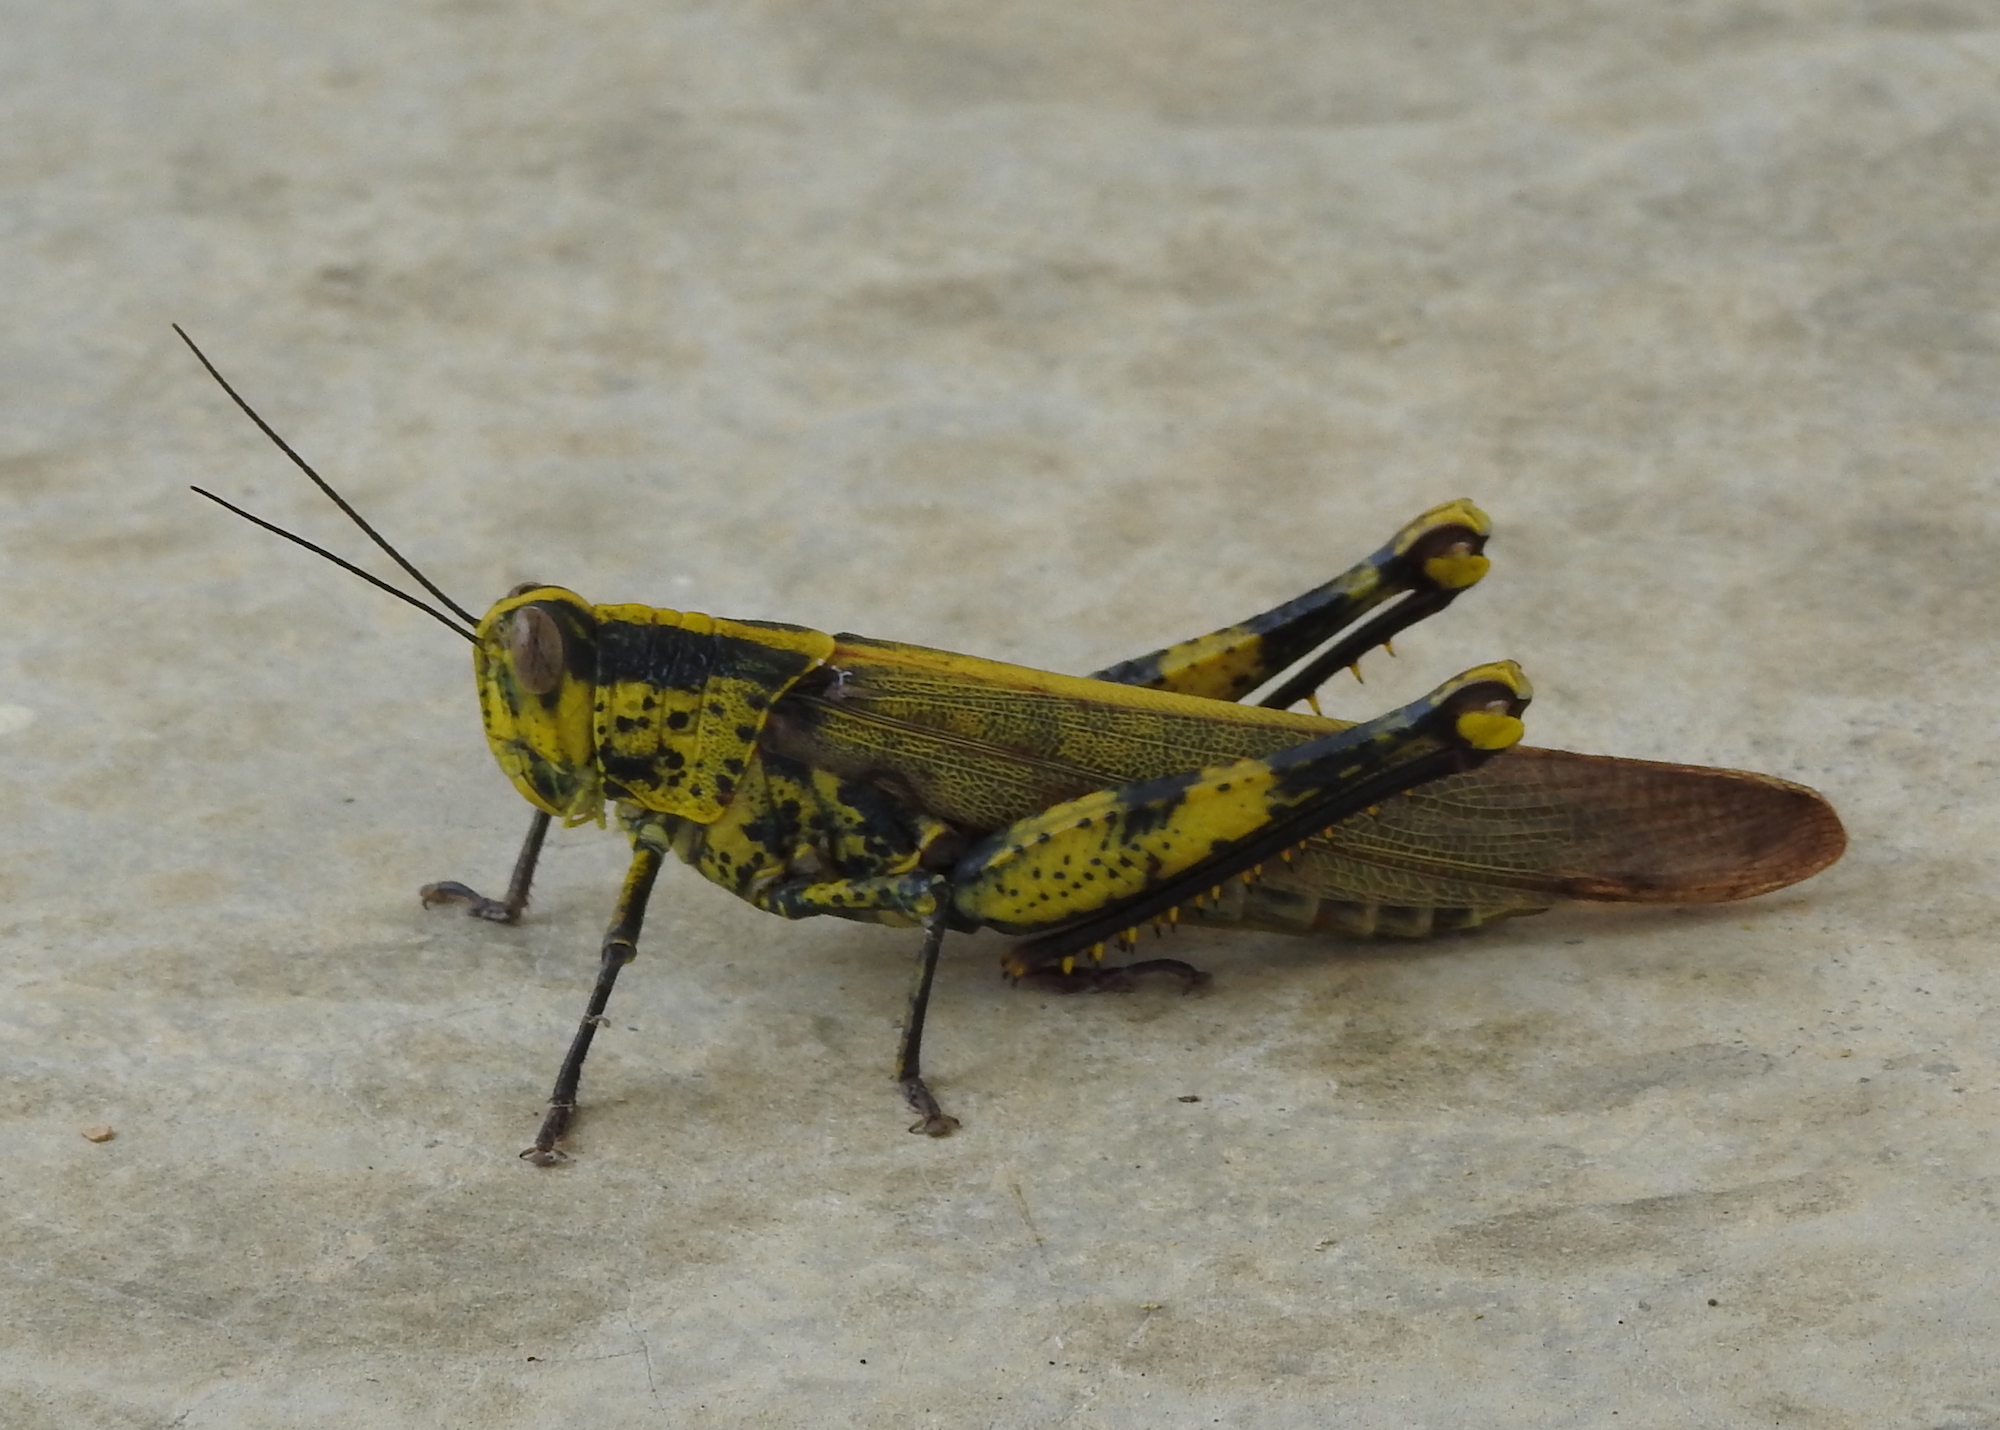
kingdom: Animalia
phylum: Arthropoda
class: Insecta
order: Orthoptera
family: Acrididae
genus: Valanga
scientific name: Valanga nigricornis
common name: Javanese bird grasshopper
